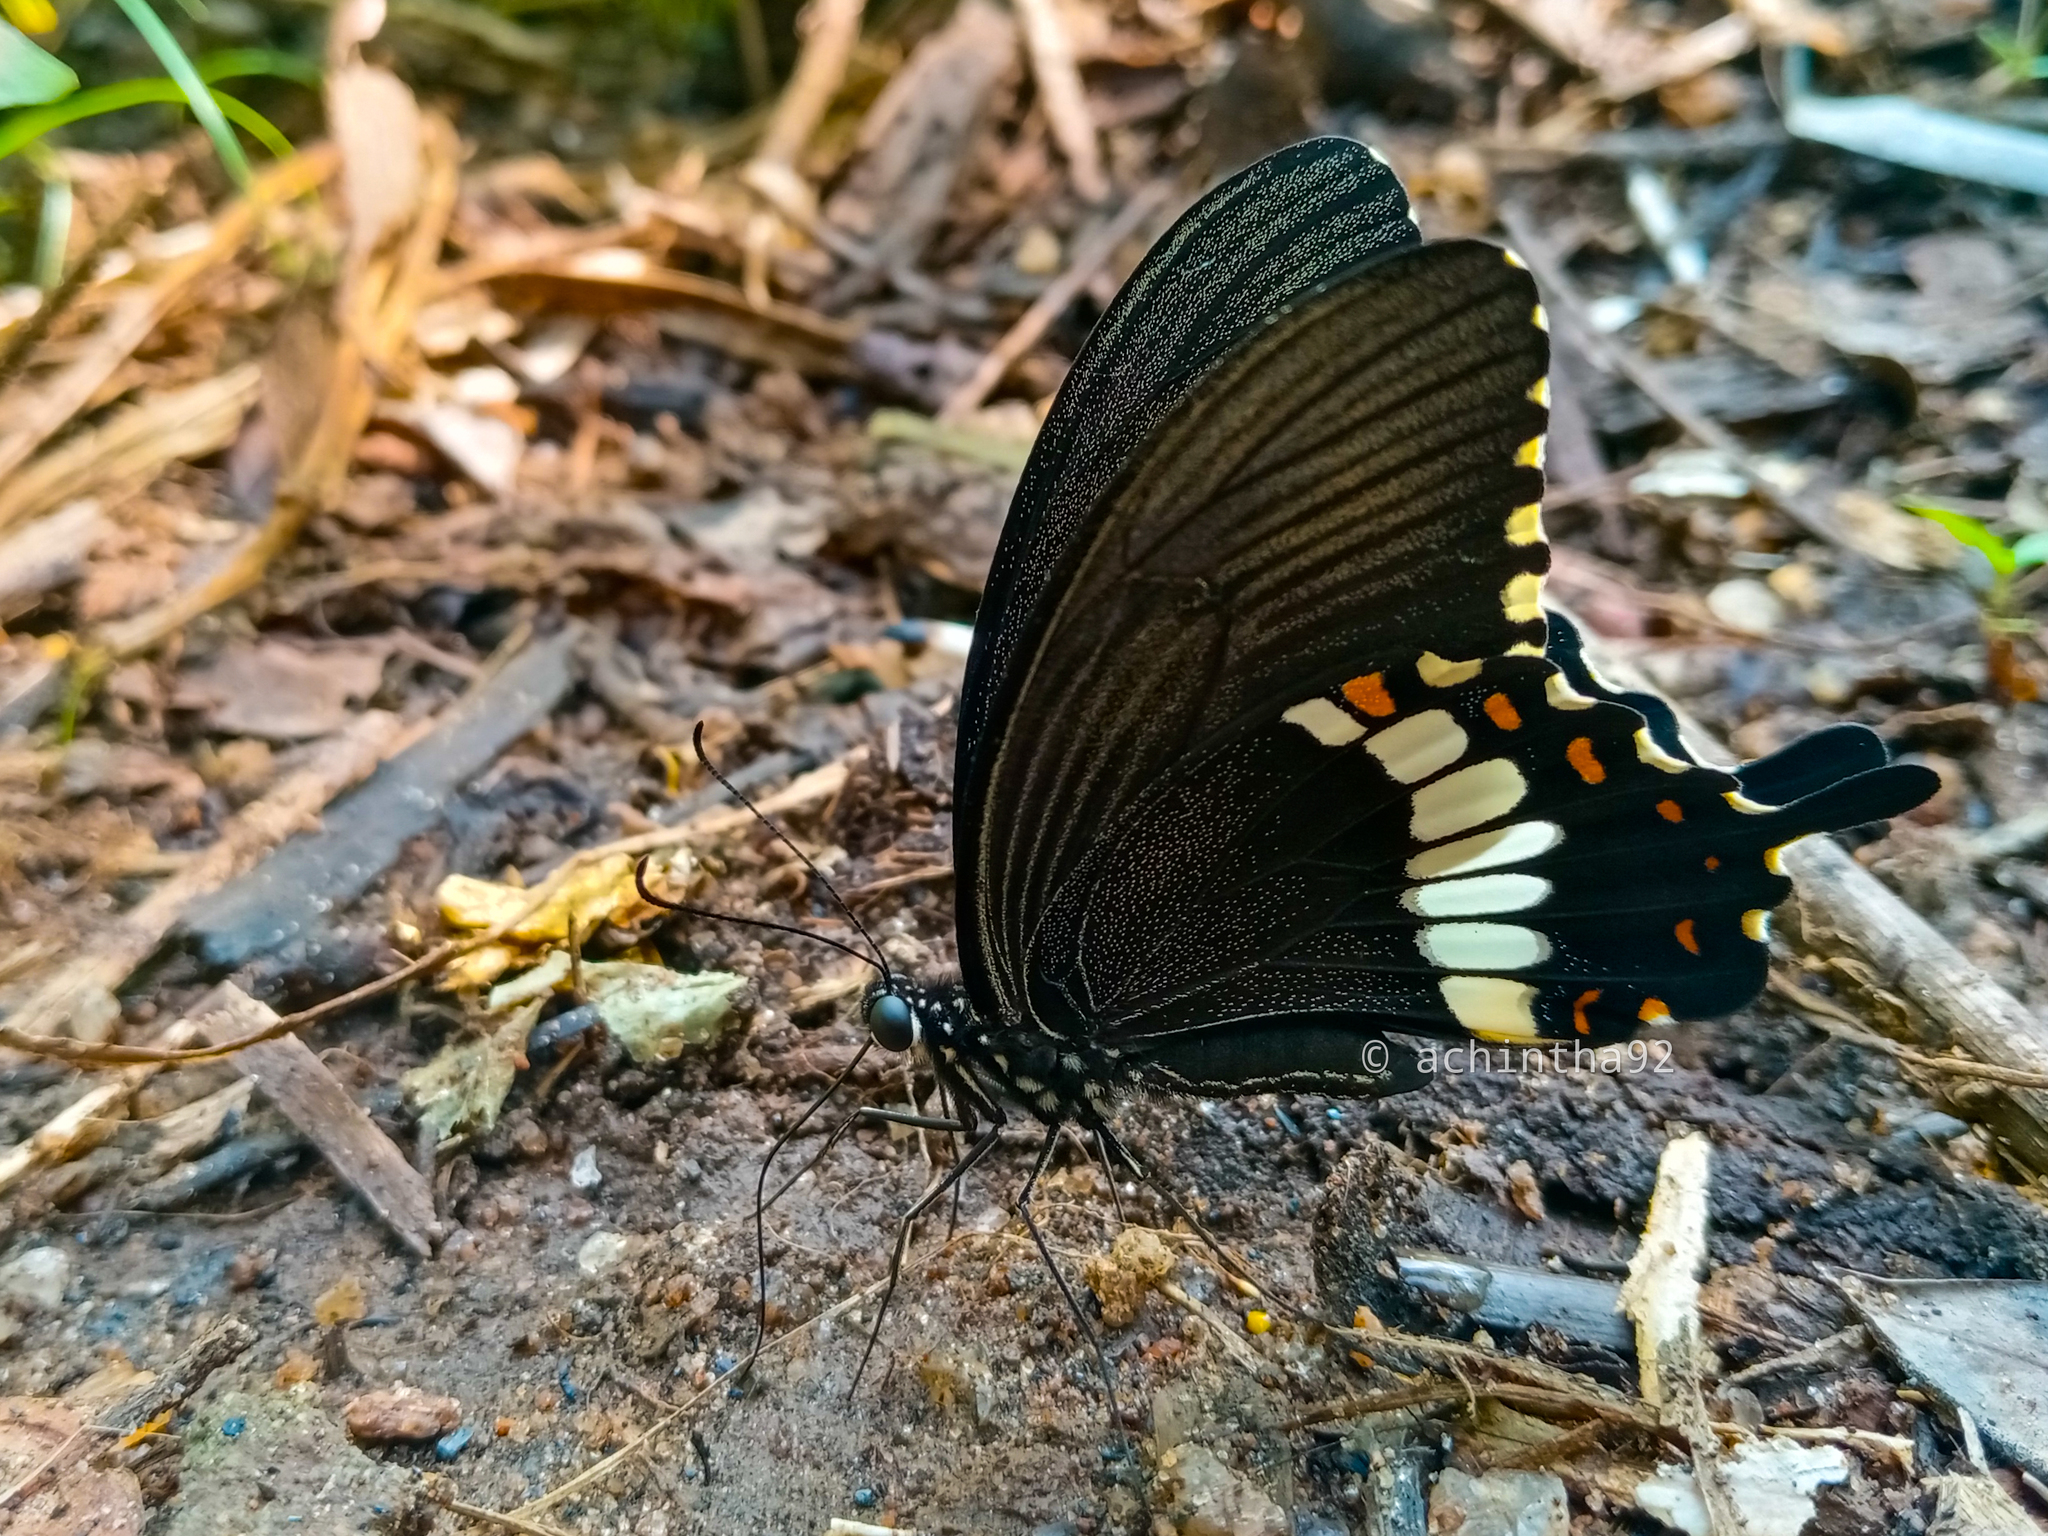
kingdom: Animalia
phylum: Arthropoda
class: Insecta
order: Lepidoptera
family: Papilionidae
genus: Papilio
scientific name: Papilio polytes
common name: Common mormon
